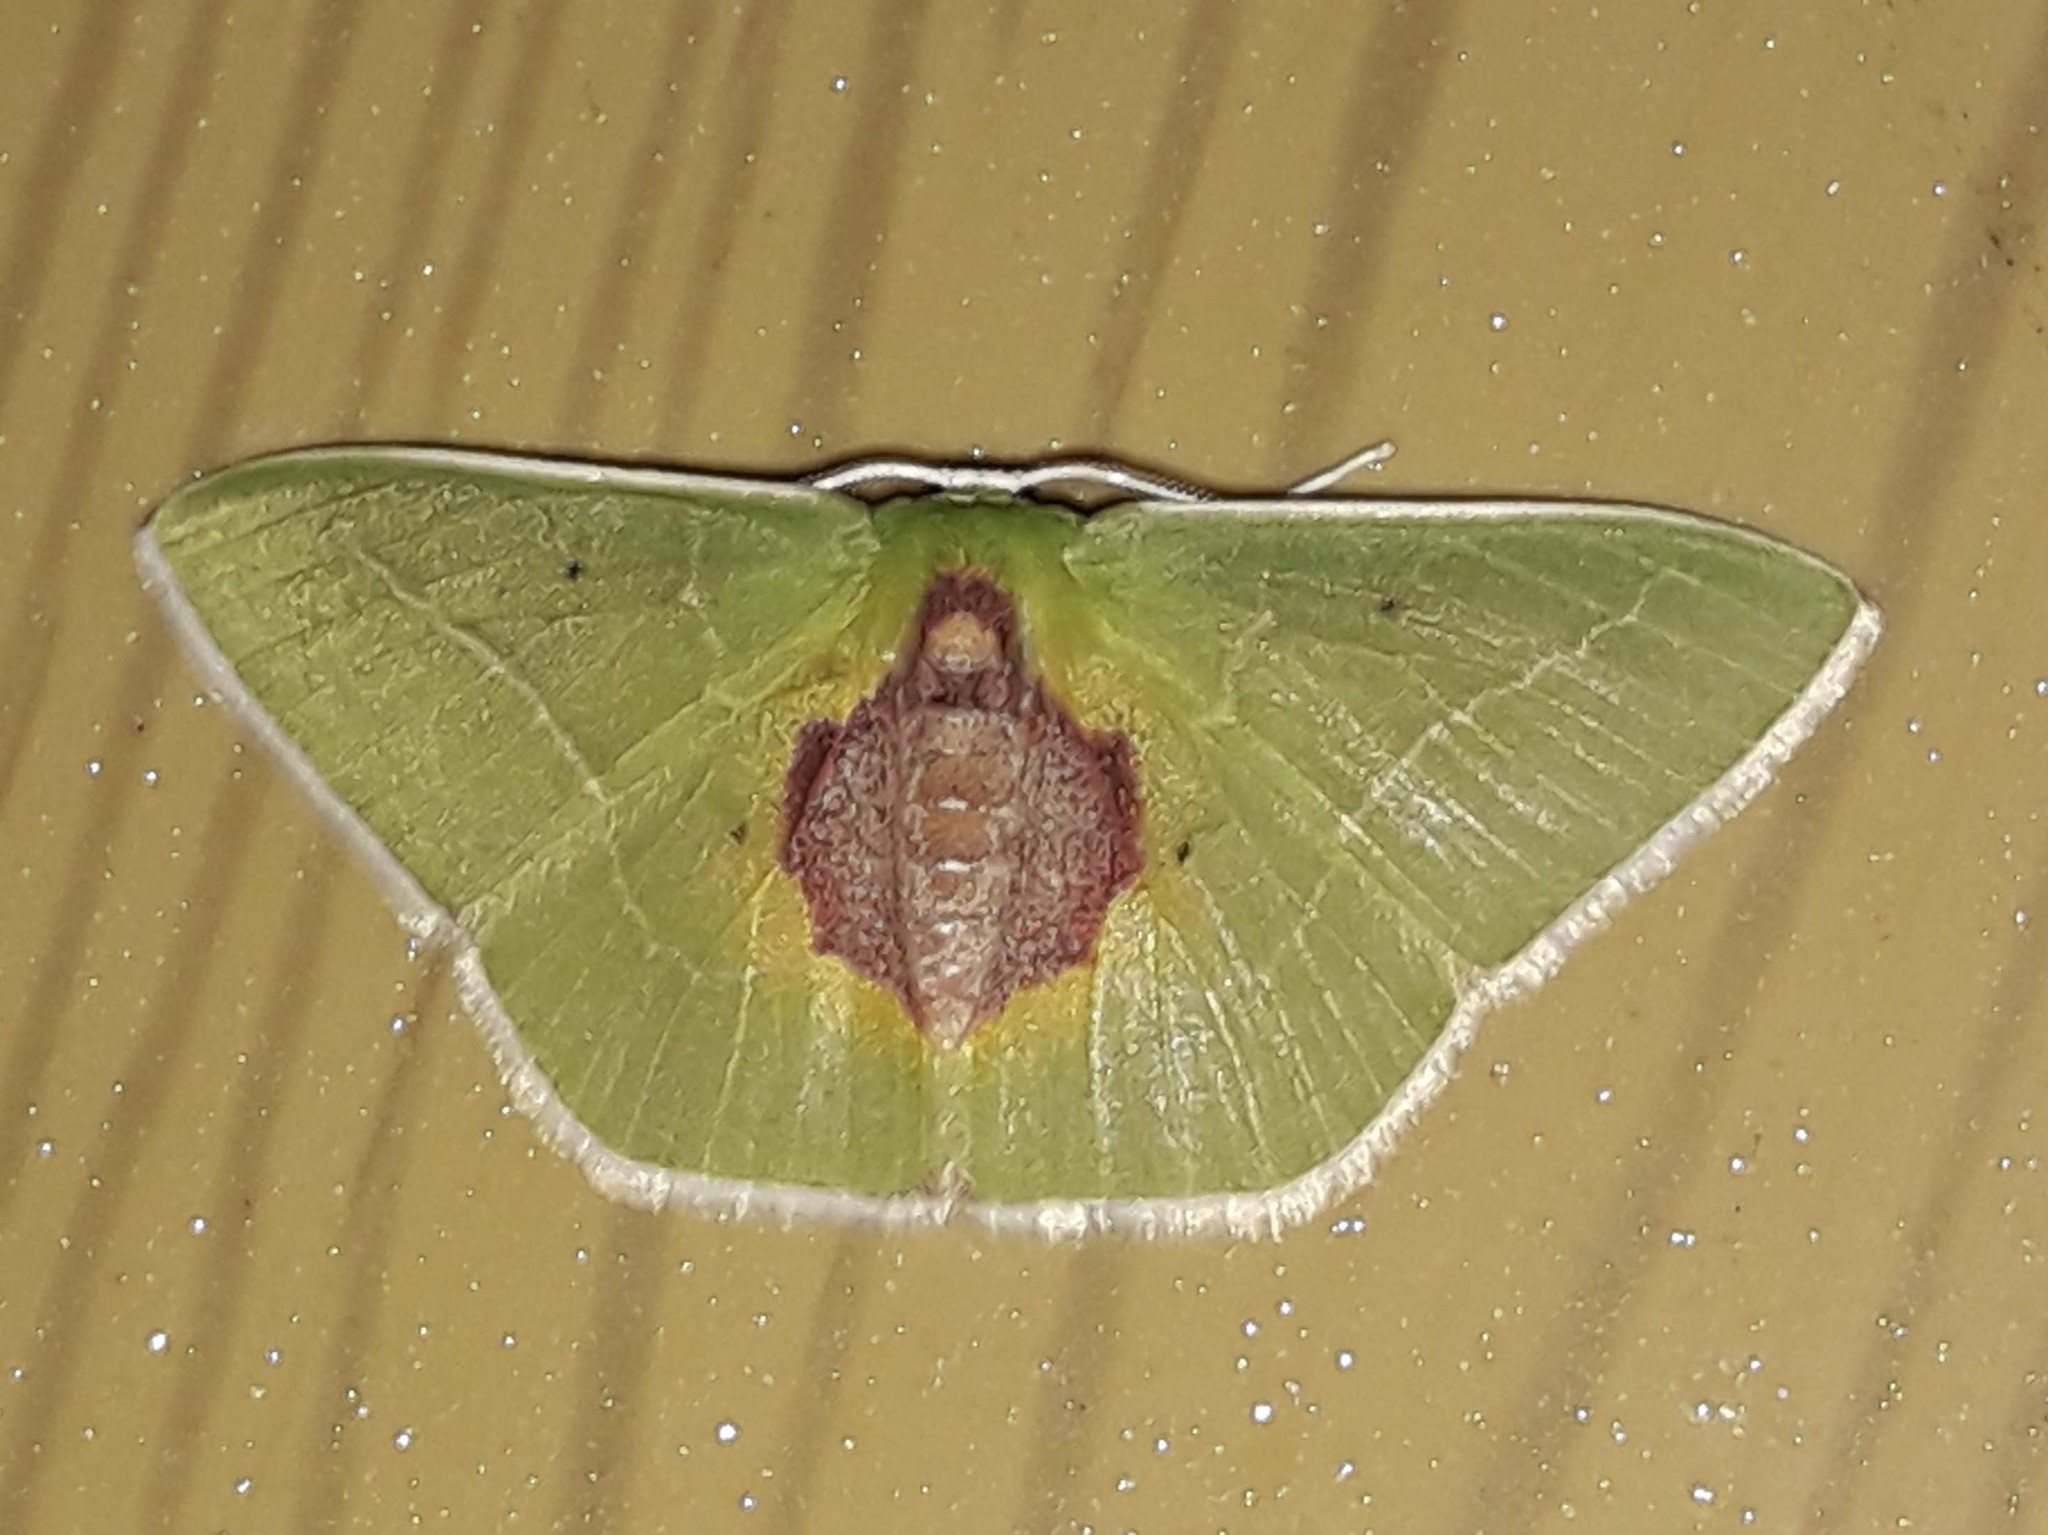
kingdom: Animalia
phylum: Arthropoda
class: Insecta
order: Lepidoptera
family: Geometridae
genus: Nemoria
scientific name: Nemoria astraea
